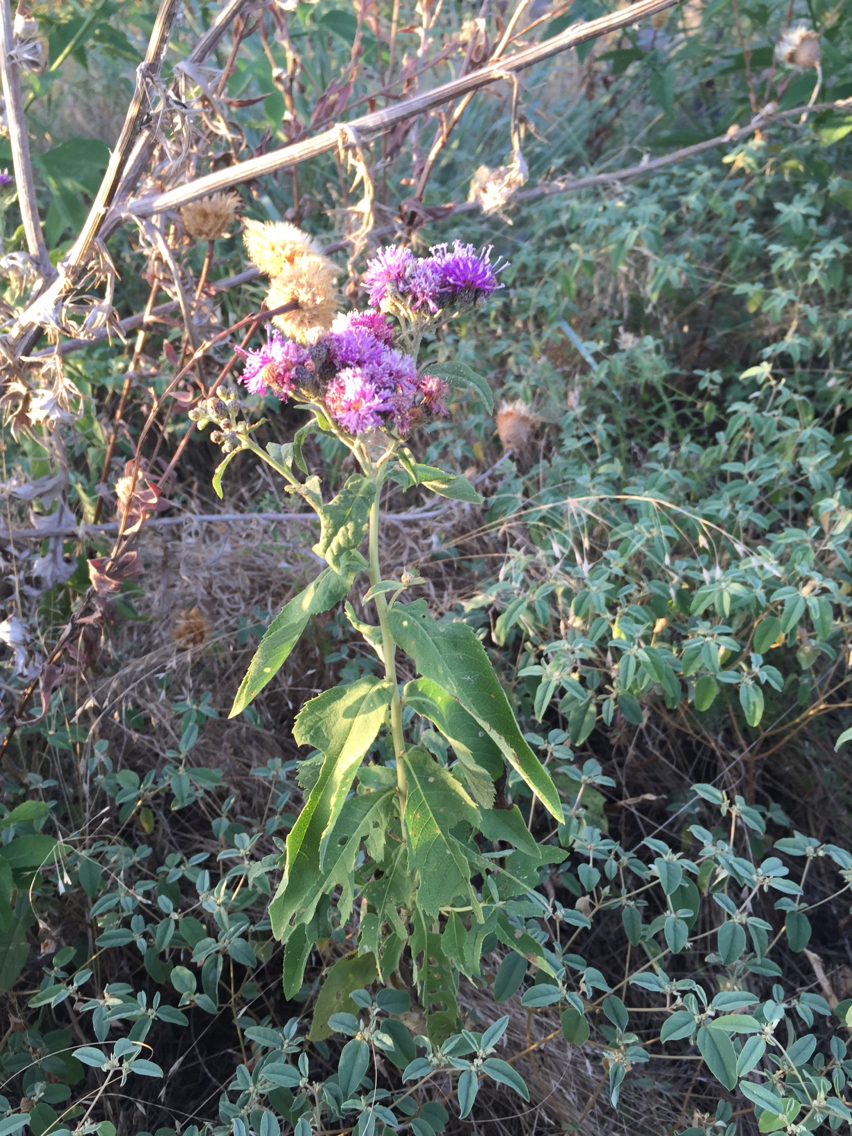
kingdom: Plantae
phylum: Tracheophyta
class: Magnoliopsida
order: Asterales
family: Asteraceae
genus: Vernonia
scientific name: Vernonia baldwinii
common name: Western ironweed
